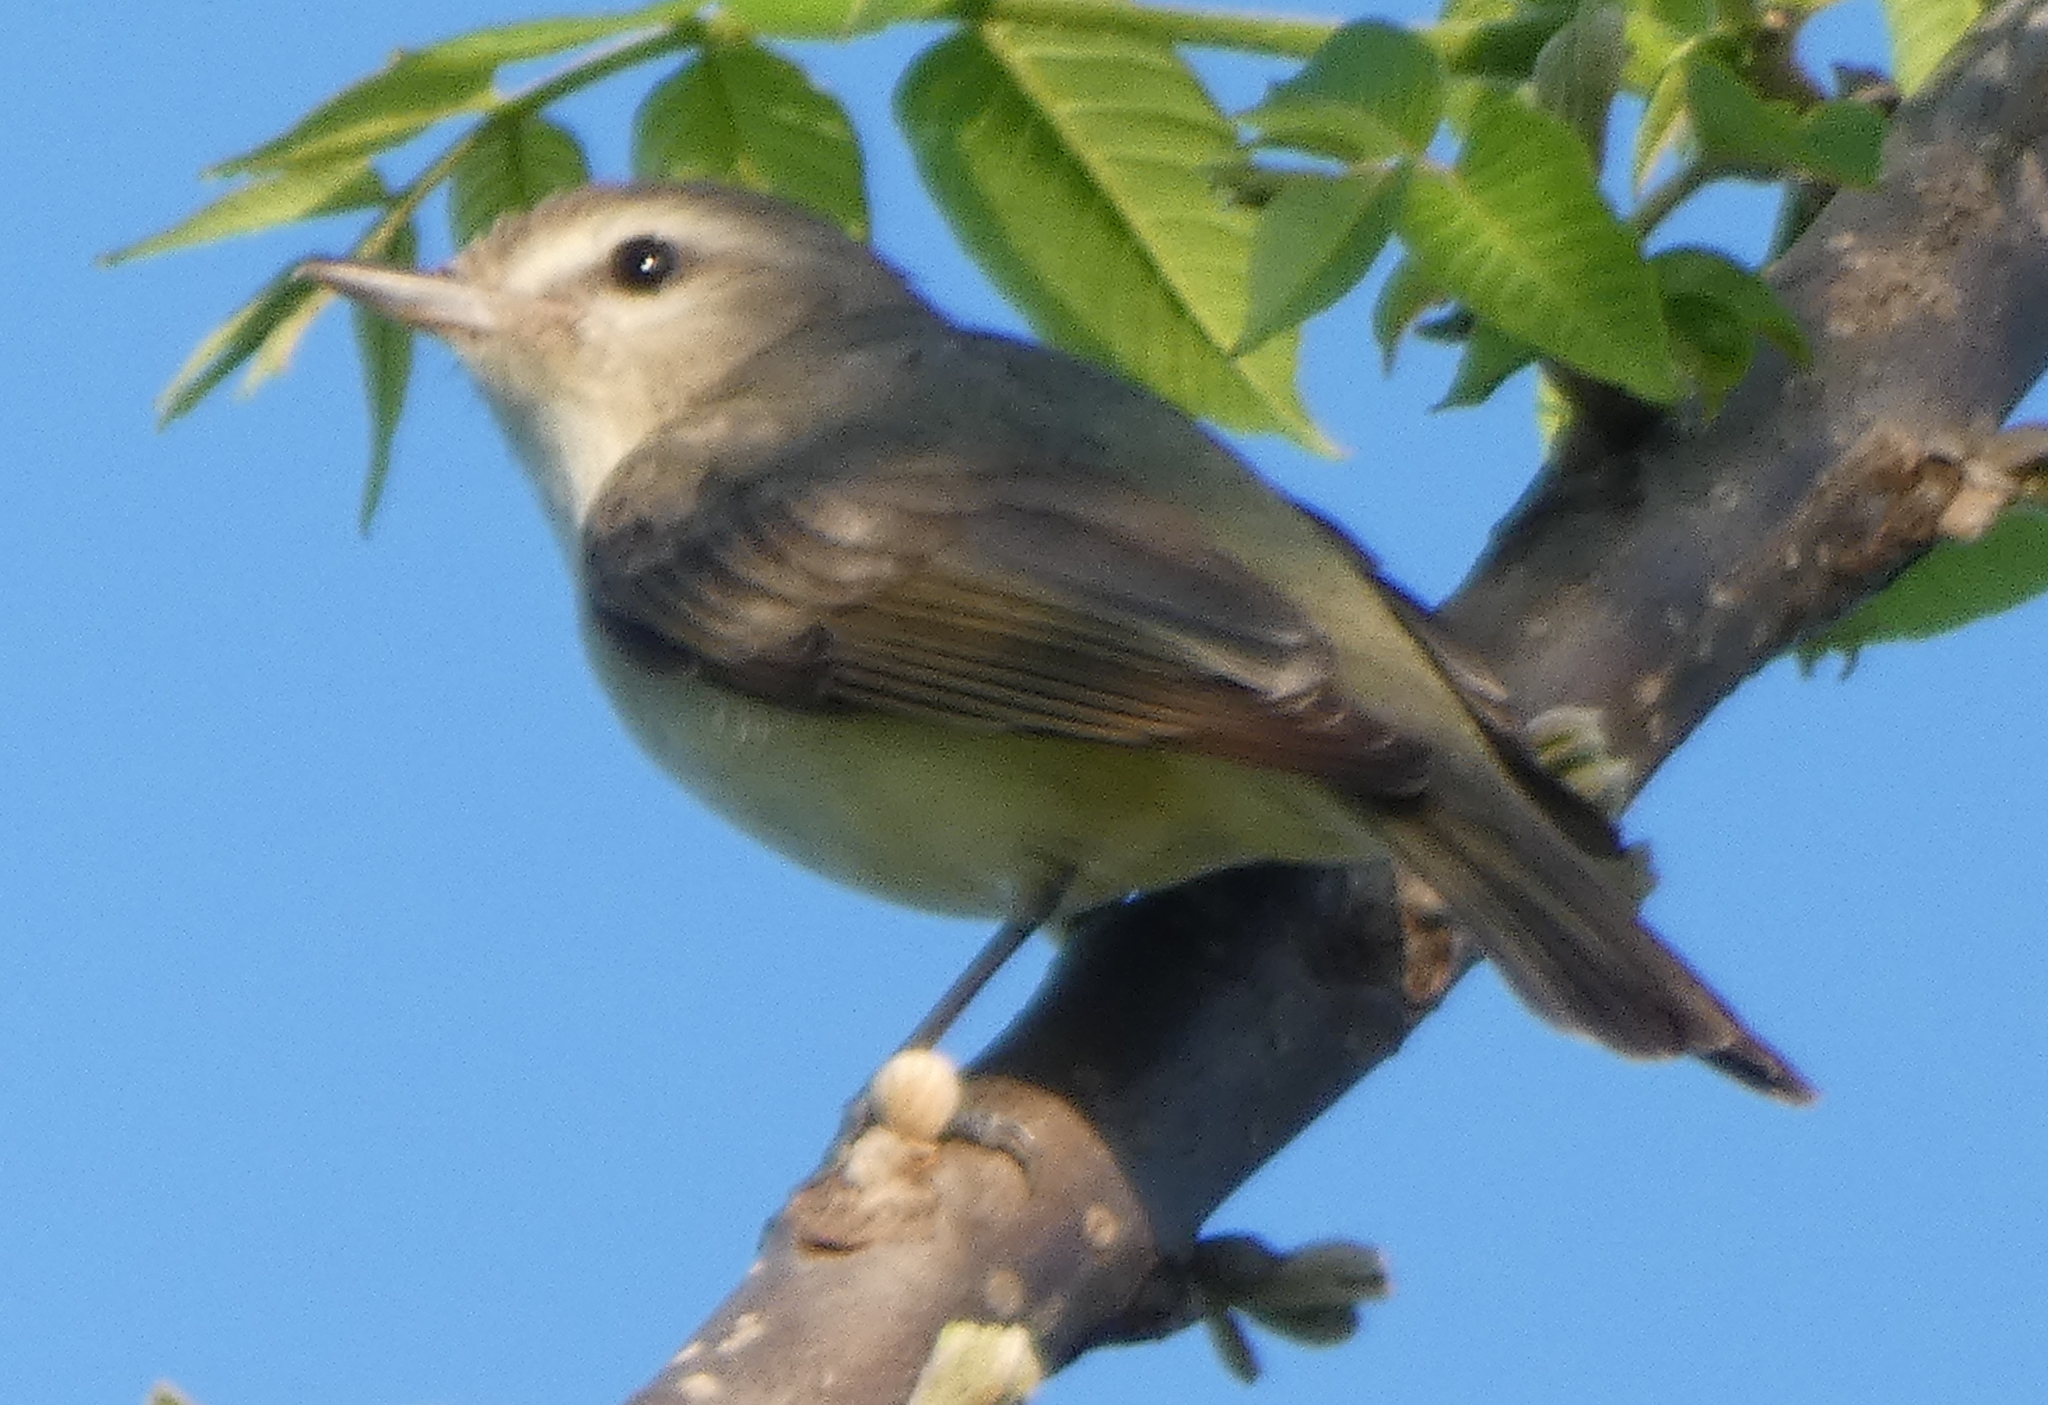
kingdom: Animalia
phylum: Chordata
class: Aves
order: Passeriformes
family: Vireonidae
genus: Vireo
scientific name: Vireo gilvus
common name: Warbling vireo
